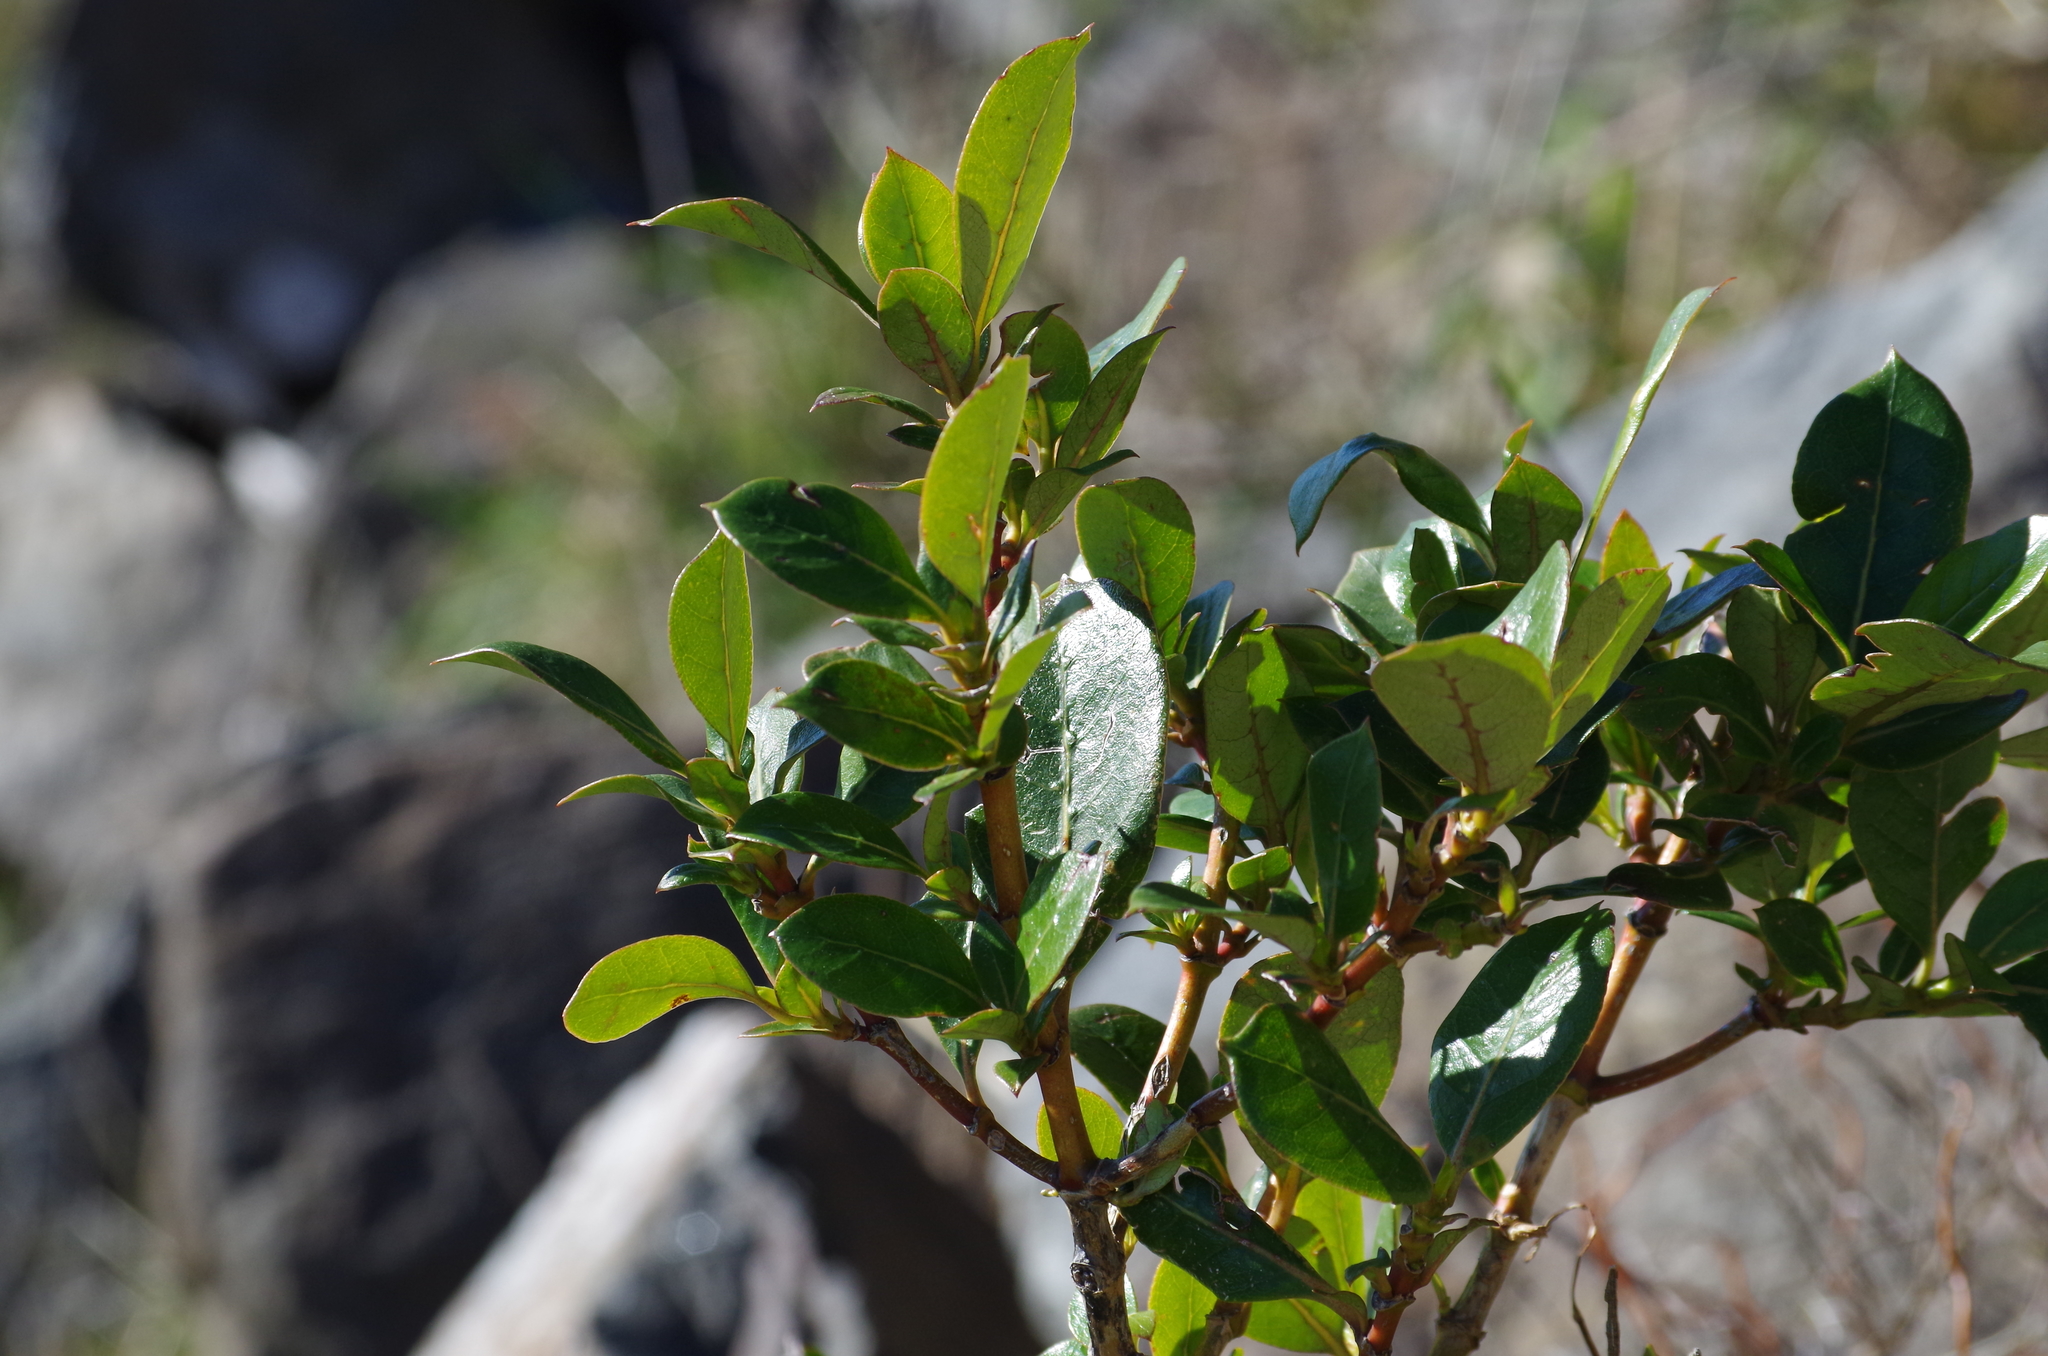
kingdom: Plantae
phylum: Tracheophyta
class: Magnoliopsida
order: Gentianales
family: Rubiaceae
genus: Coprosma
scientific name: Coprosma lucida
